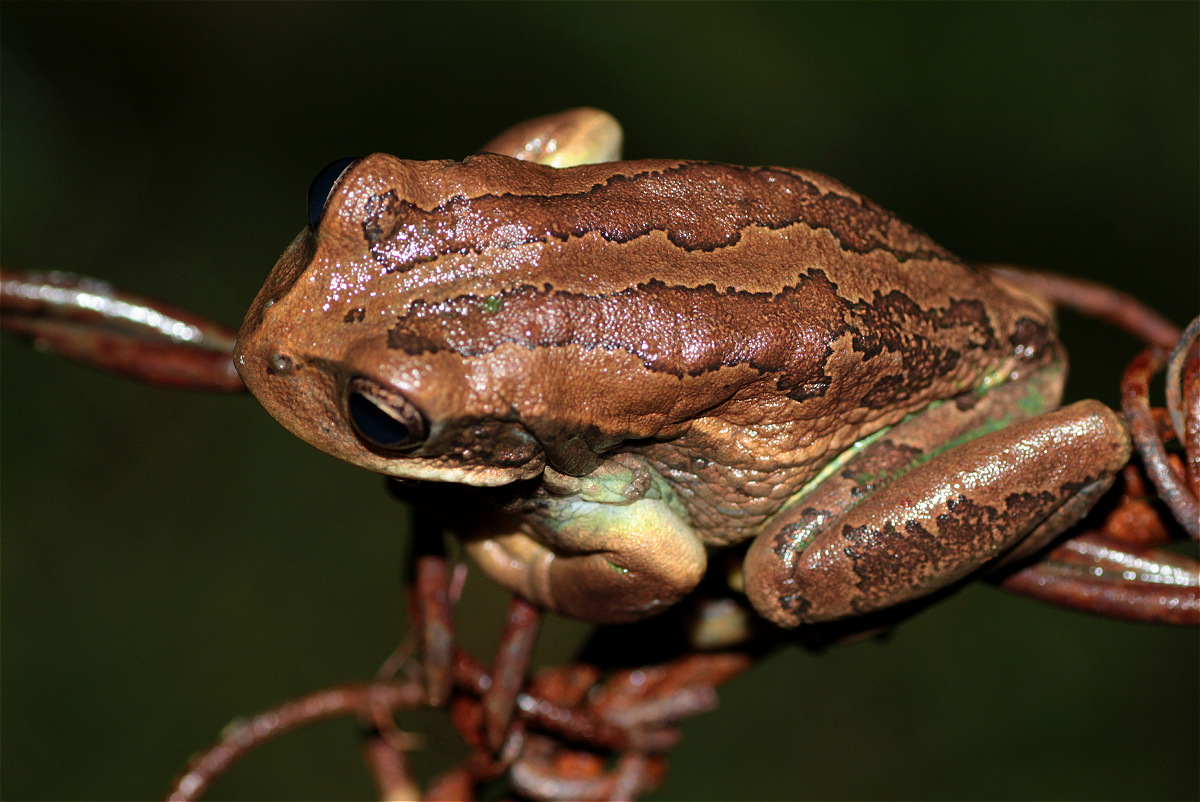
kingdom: Animalia
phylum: Chordata
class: Amphibia
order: Anura
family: Hemiphractidae
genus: Gastrotheca
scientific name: Gastrotheca cuencana
